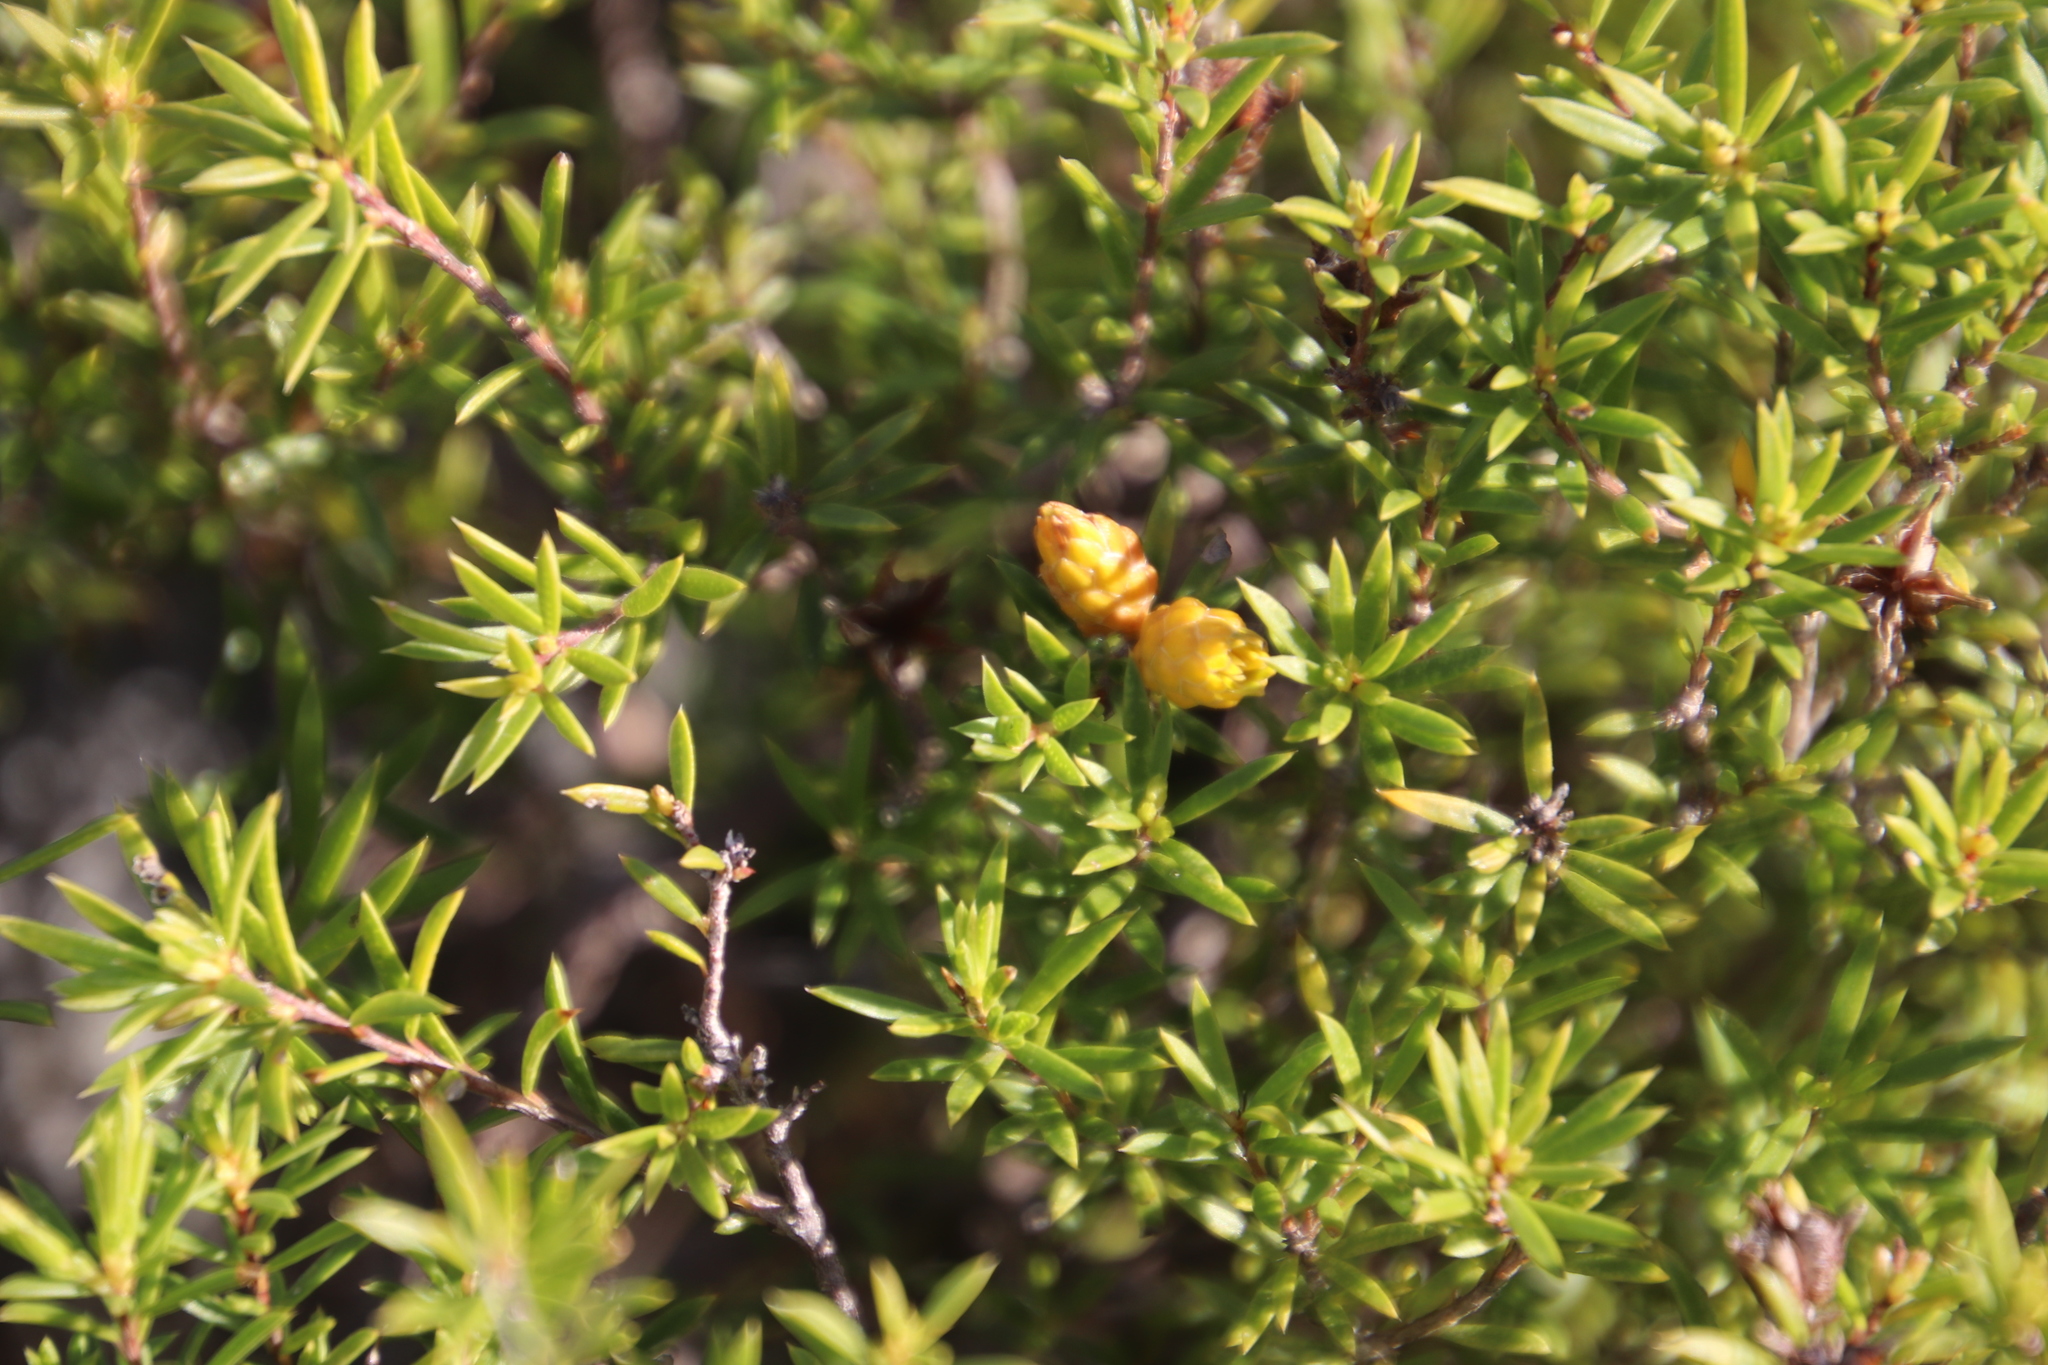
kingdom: Plantae
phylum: Tracheophyta
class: Magnoliopsida
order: Sapindales
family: Rutaceae
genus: Coleonema
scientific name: Coleonema album
